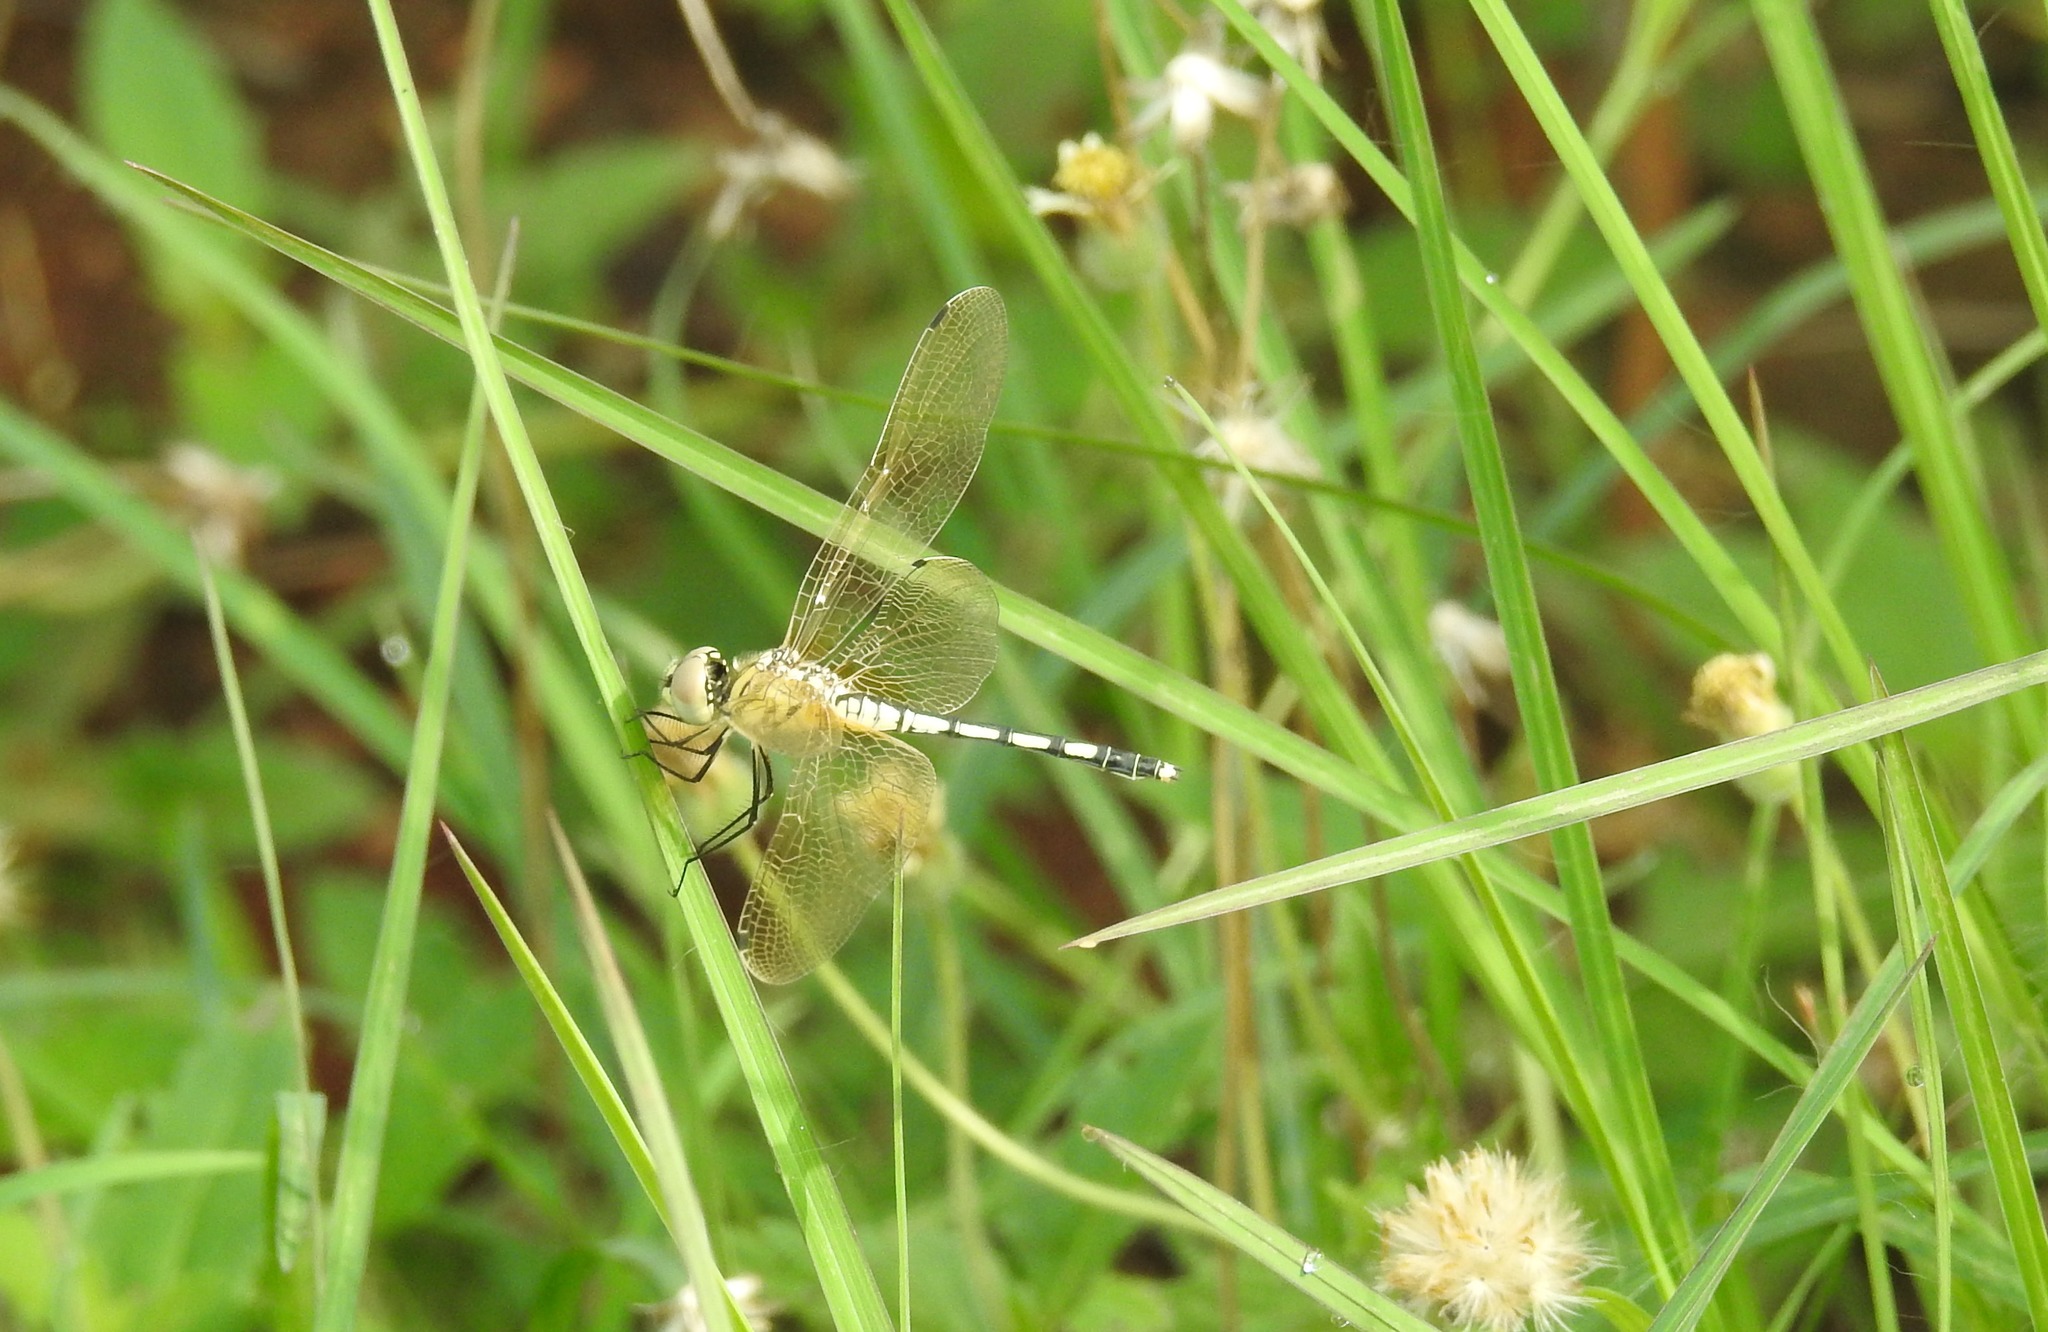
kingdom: Animalia
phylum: Arthropoda
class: Insecta
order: Odonata
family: Libellulidae
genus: Diplacodes
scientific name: Diplacodes trivialis
